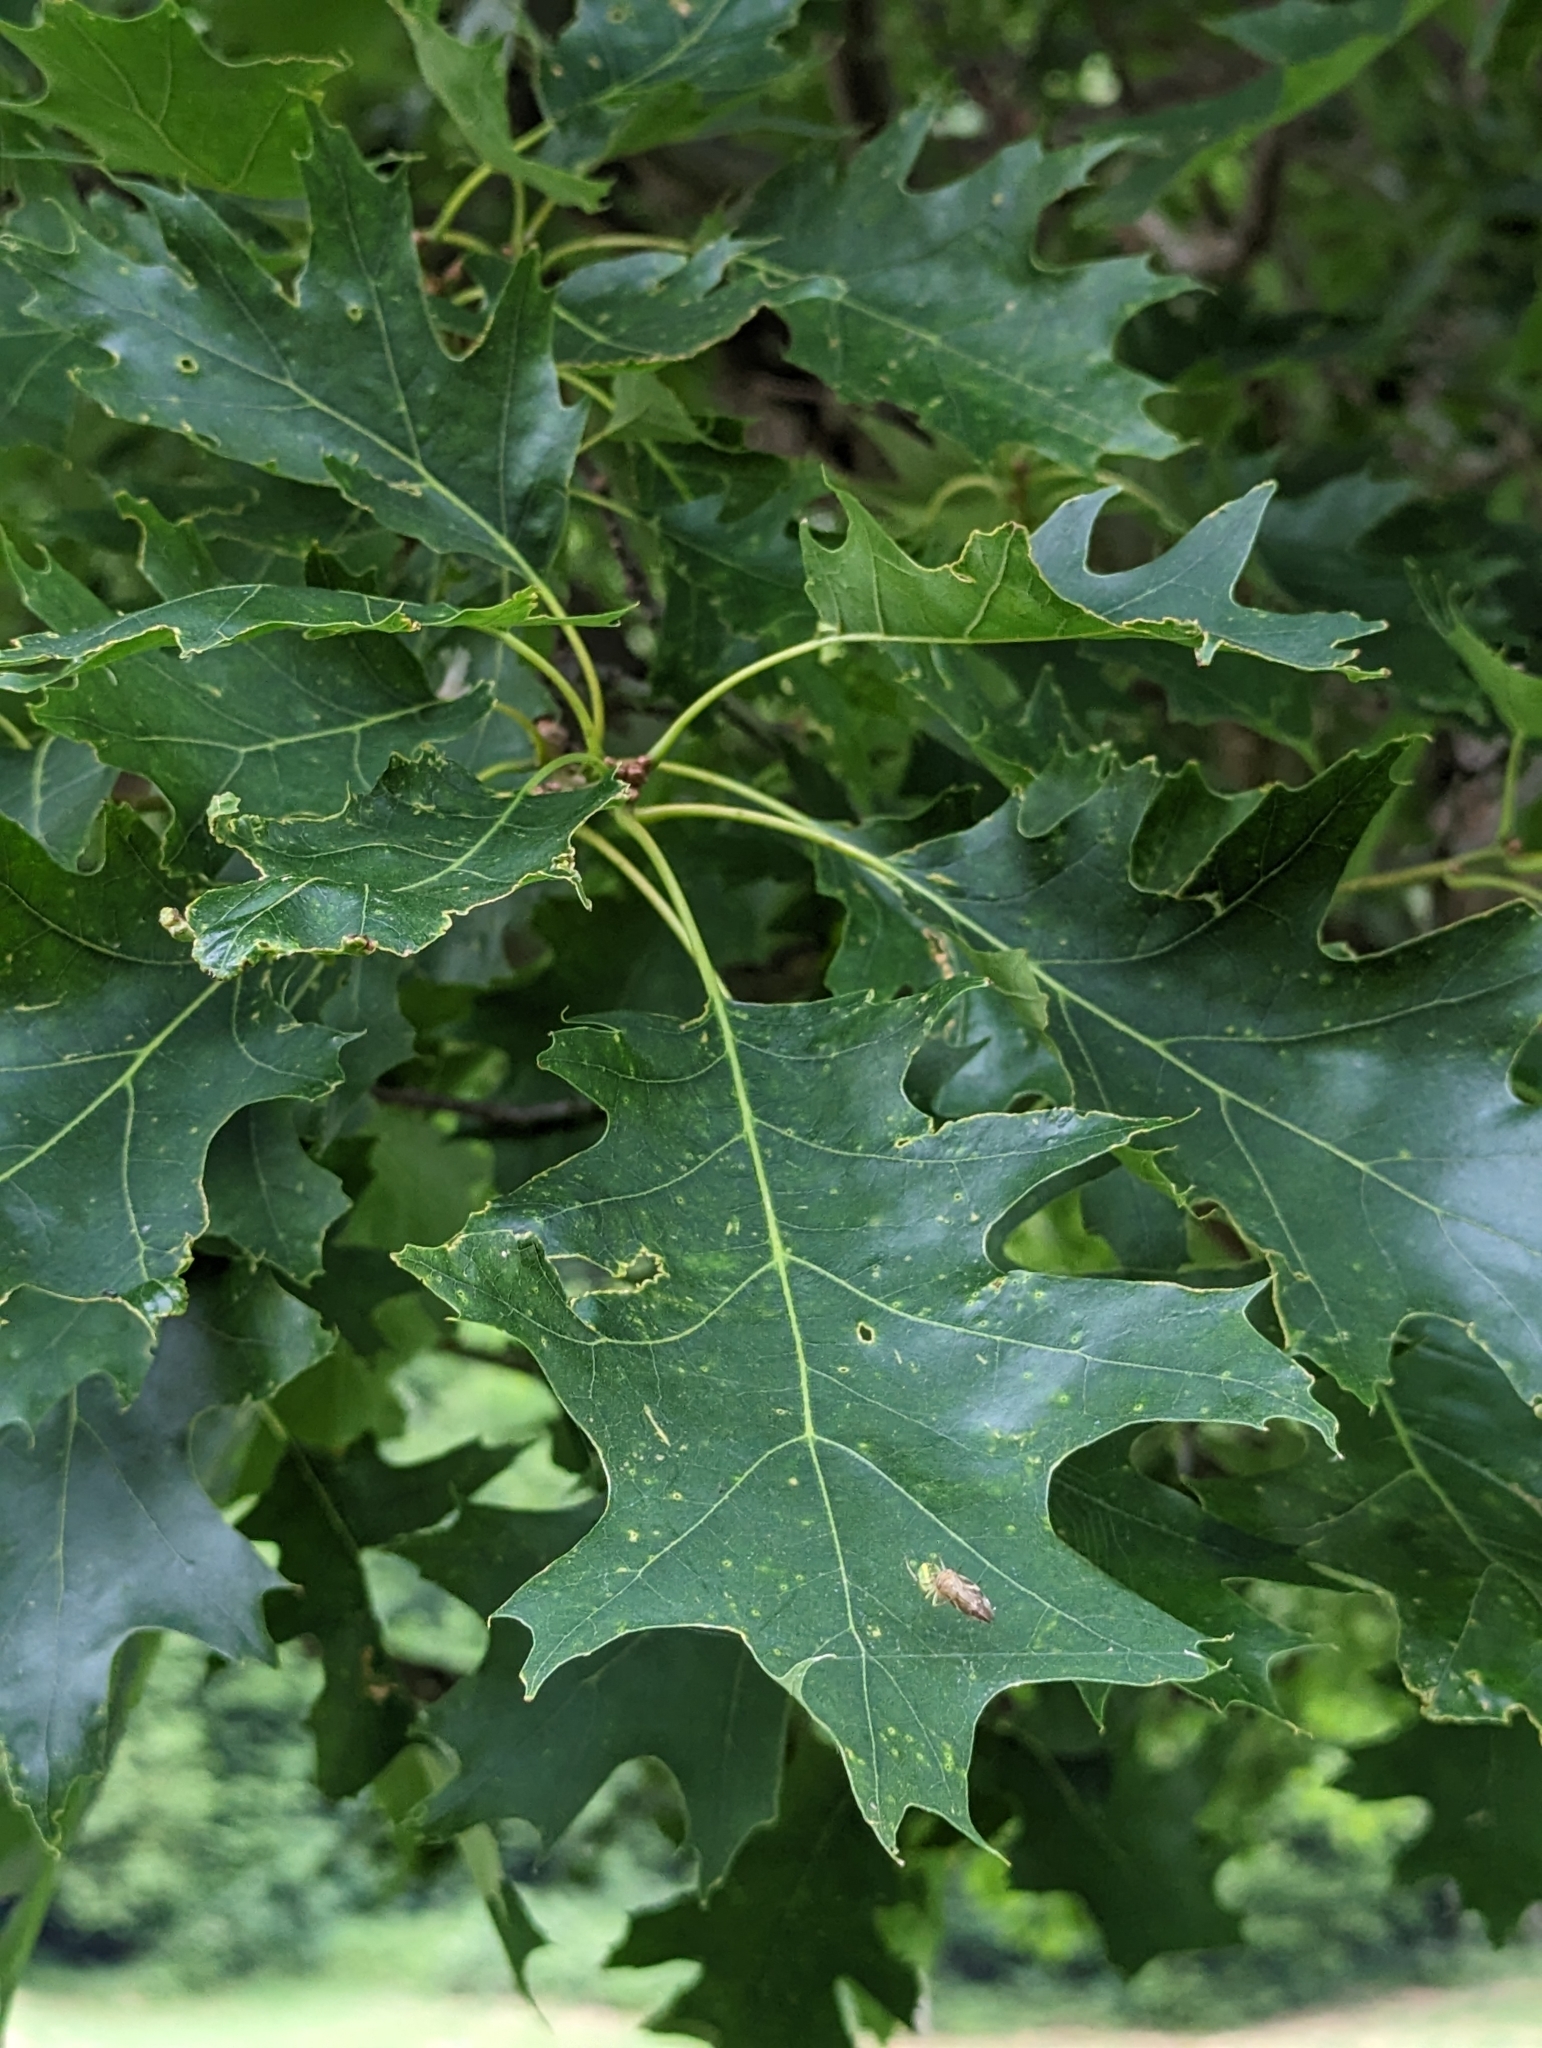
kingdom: Plantae
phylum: Tracheophyta
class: Magnoliopsida
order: Fagales
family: Fagaceae
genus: Quercus
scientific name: Quercus rubra
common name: Red oak
